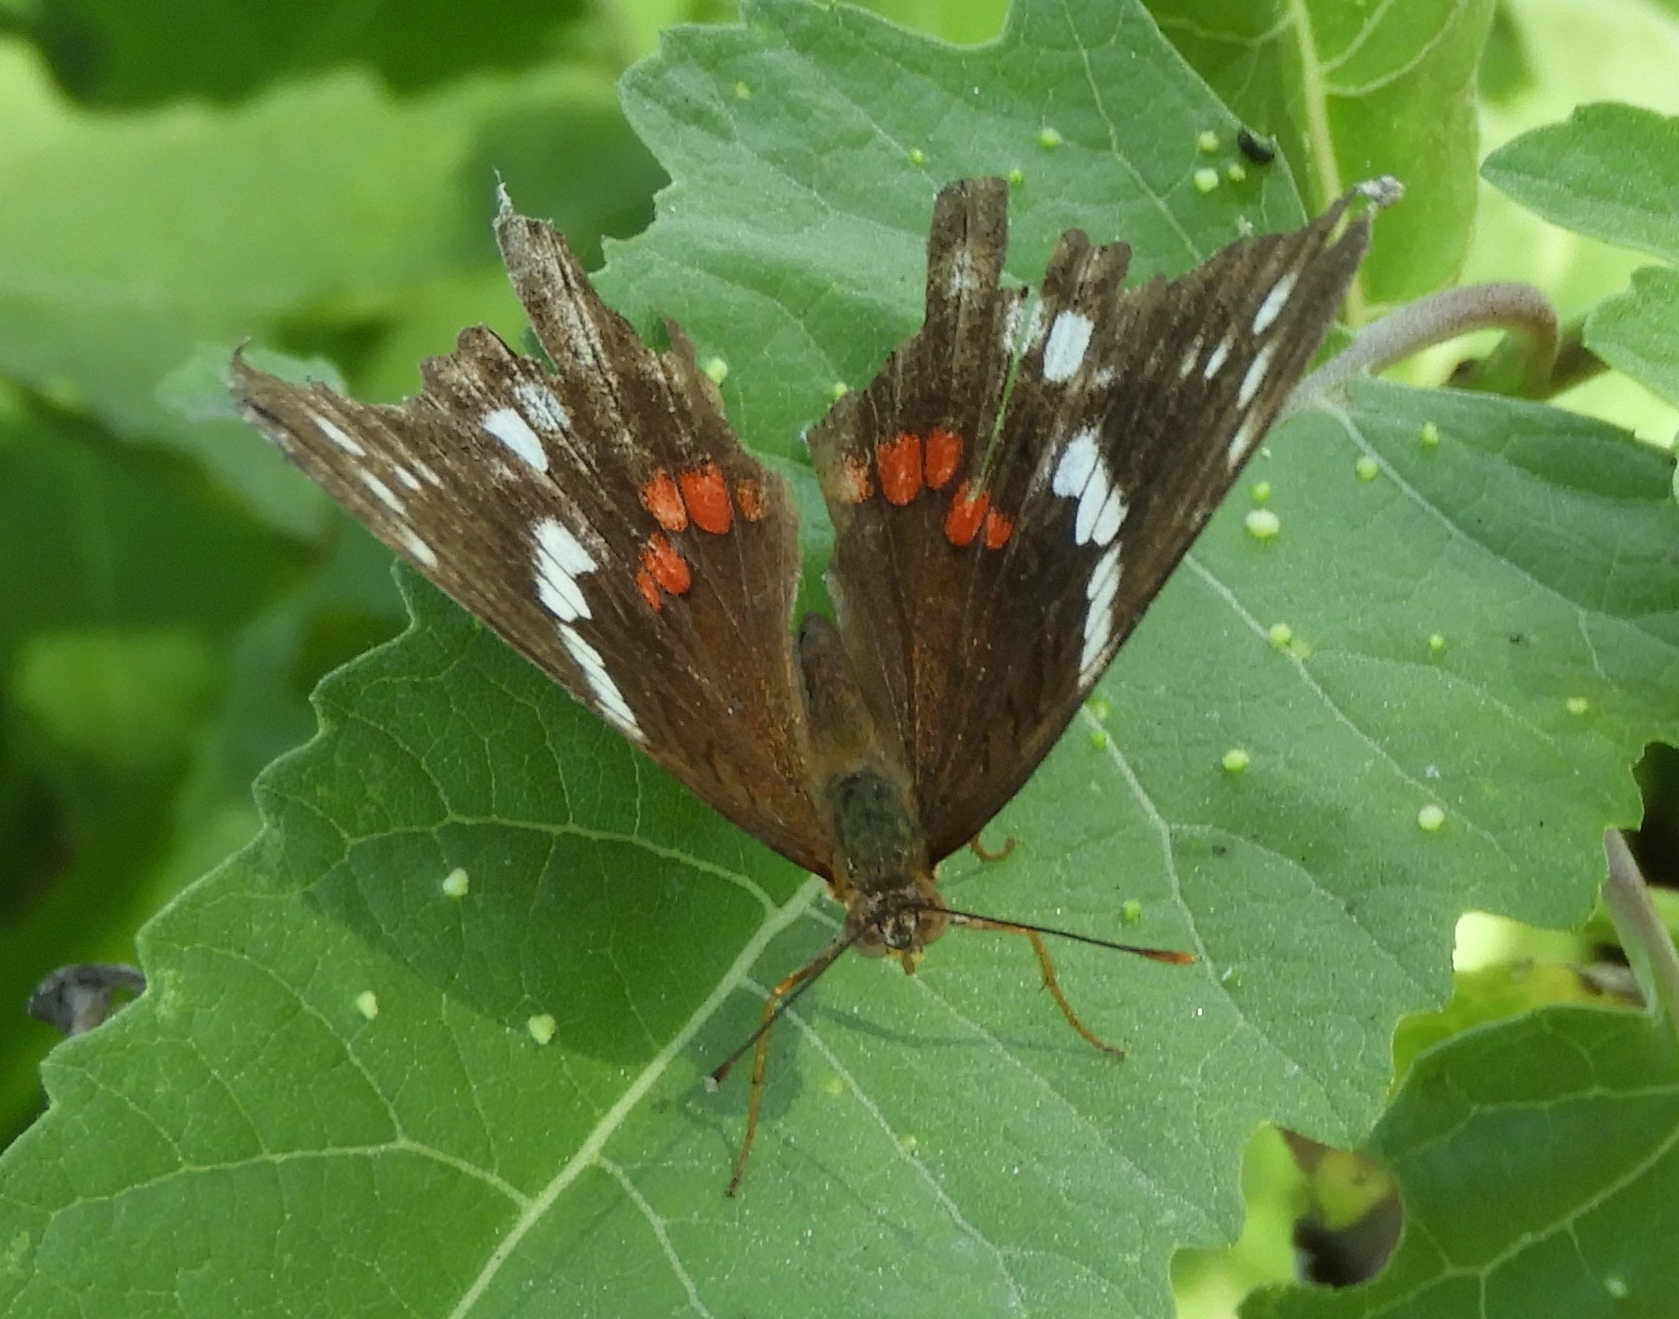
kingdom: Animalia
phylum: Arthropoda
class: Insecta
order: Lepidoptera
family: Nymphalidae
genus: Anartia
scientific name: Anartia fatima
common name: Banded peacock
